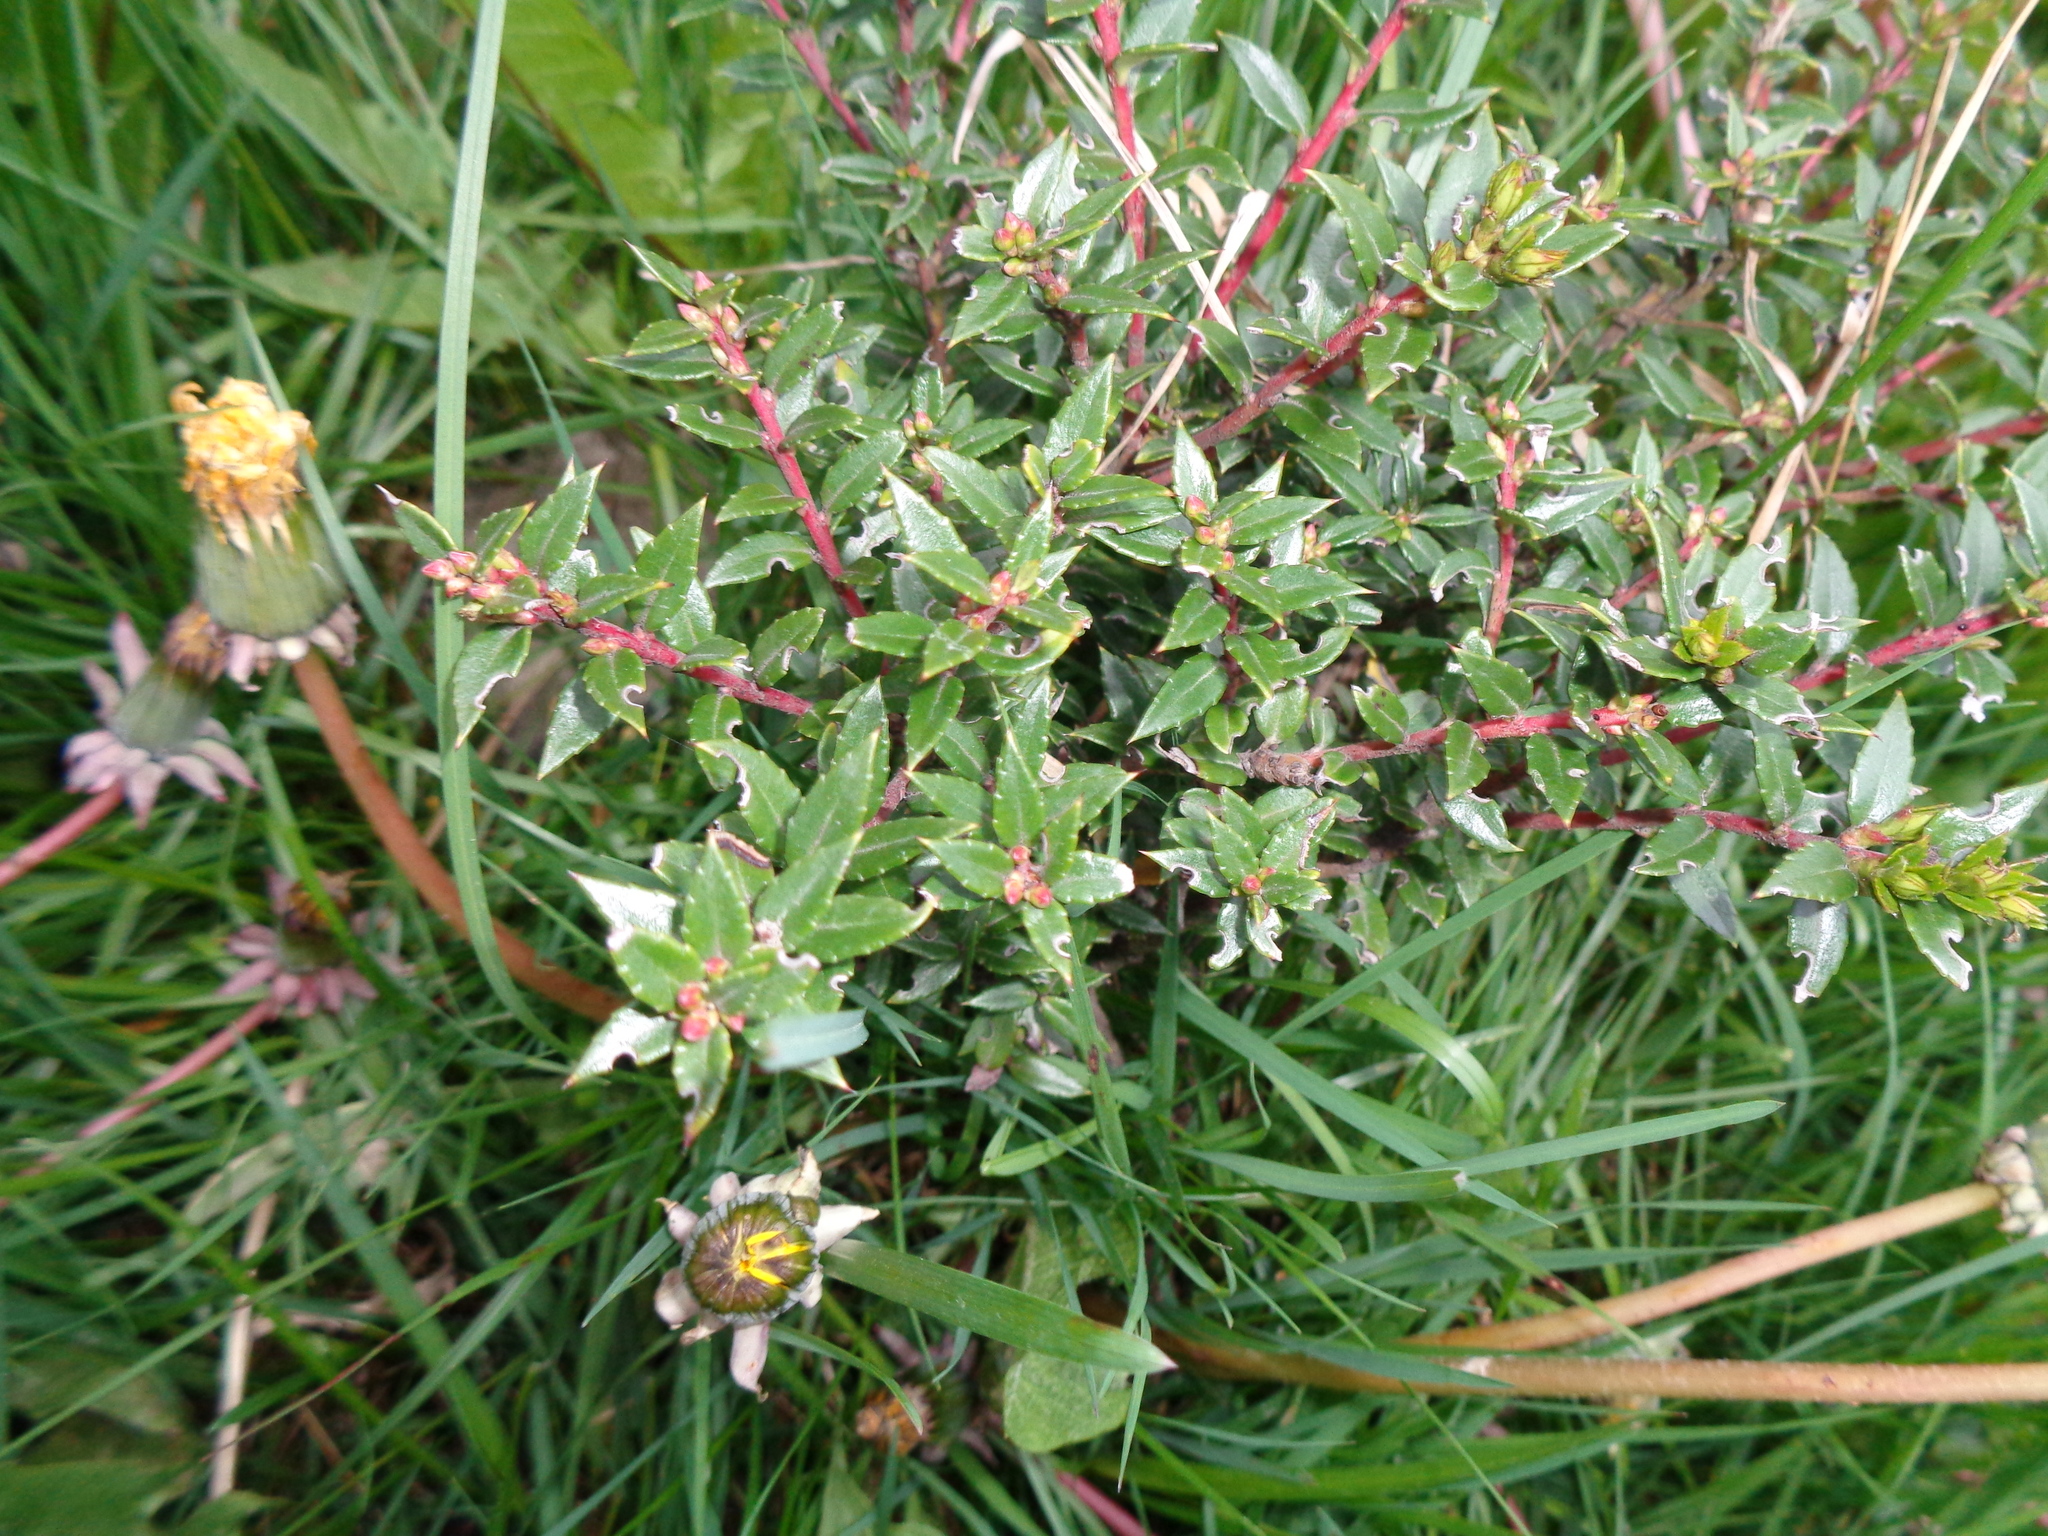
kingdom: Plantae
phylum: Tracheophyta
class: Magnoliopsida
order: Ericales
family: Ericaceae
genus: Gaultheria
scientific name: Gaultheria mucronata
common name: Prickly heath
